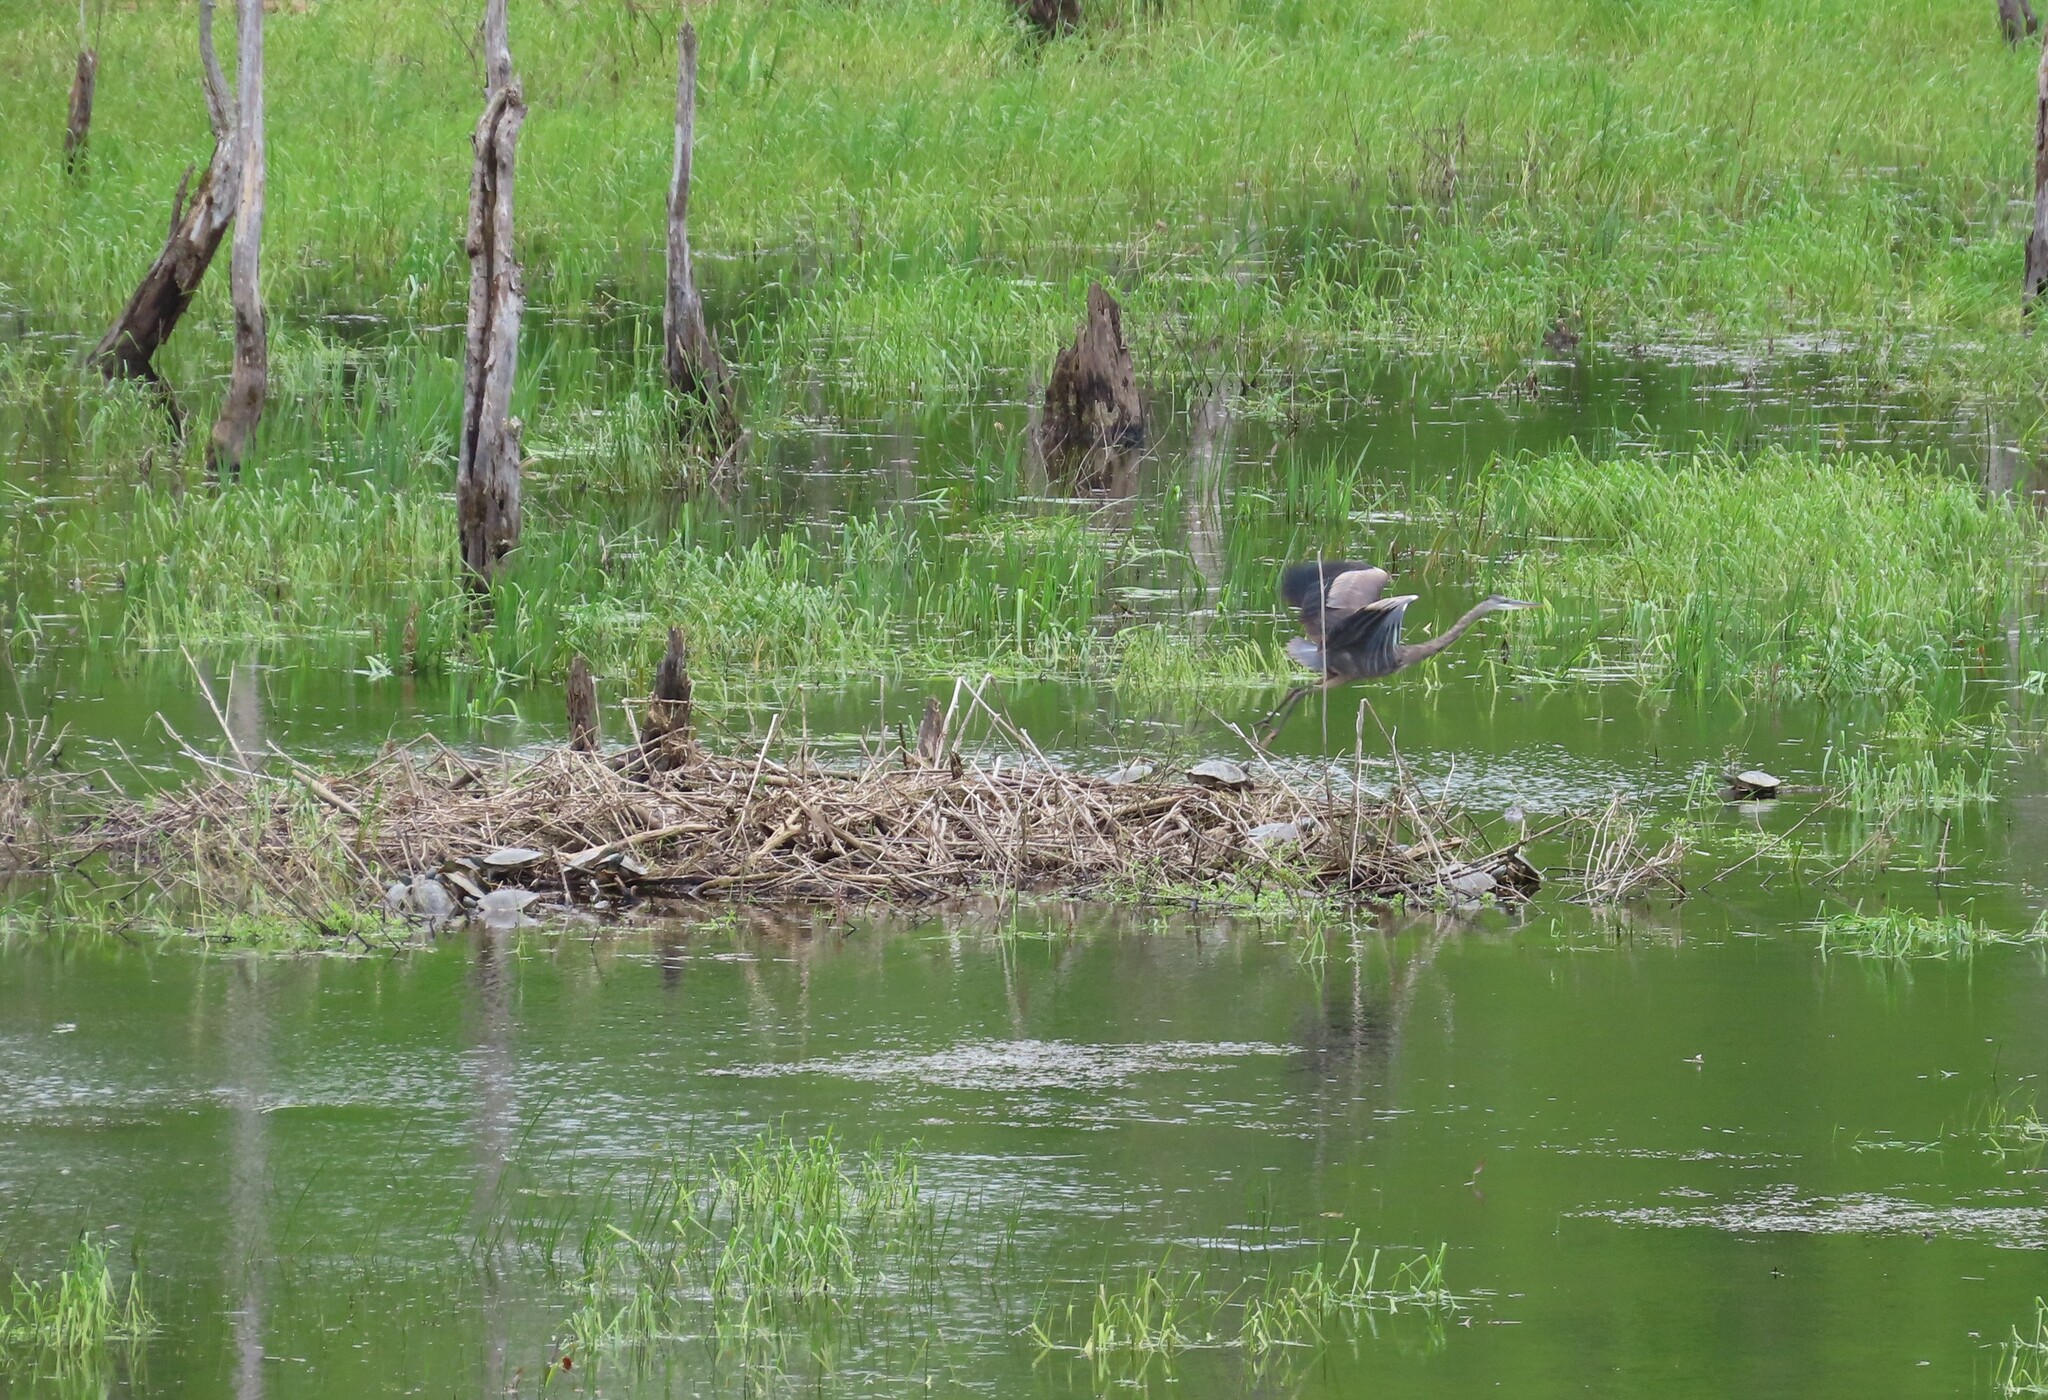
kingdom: Animalia
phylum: Chordata
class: Aves
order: Pelecaniformes
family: Ardeidae
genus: Ardea
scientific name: Ardea herodias
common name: Great blue heron
